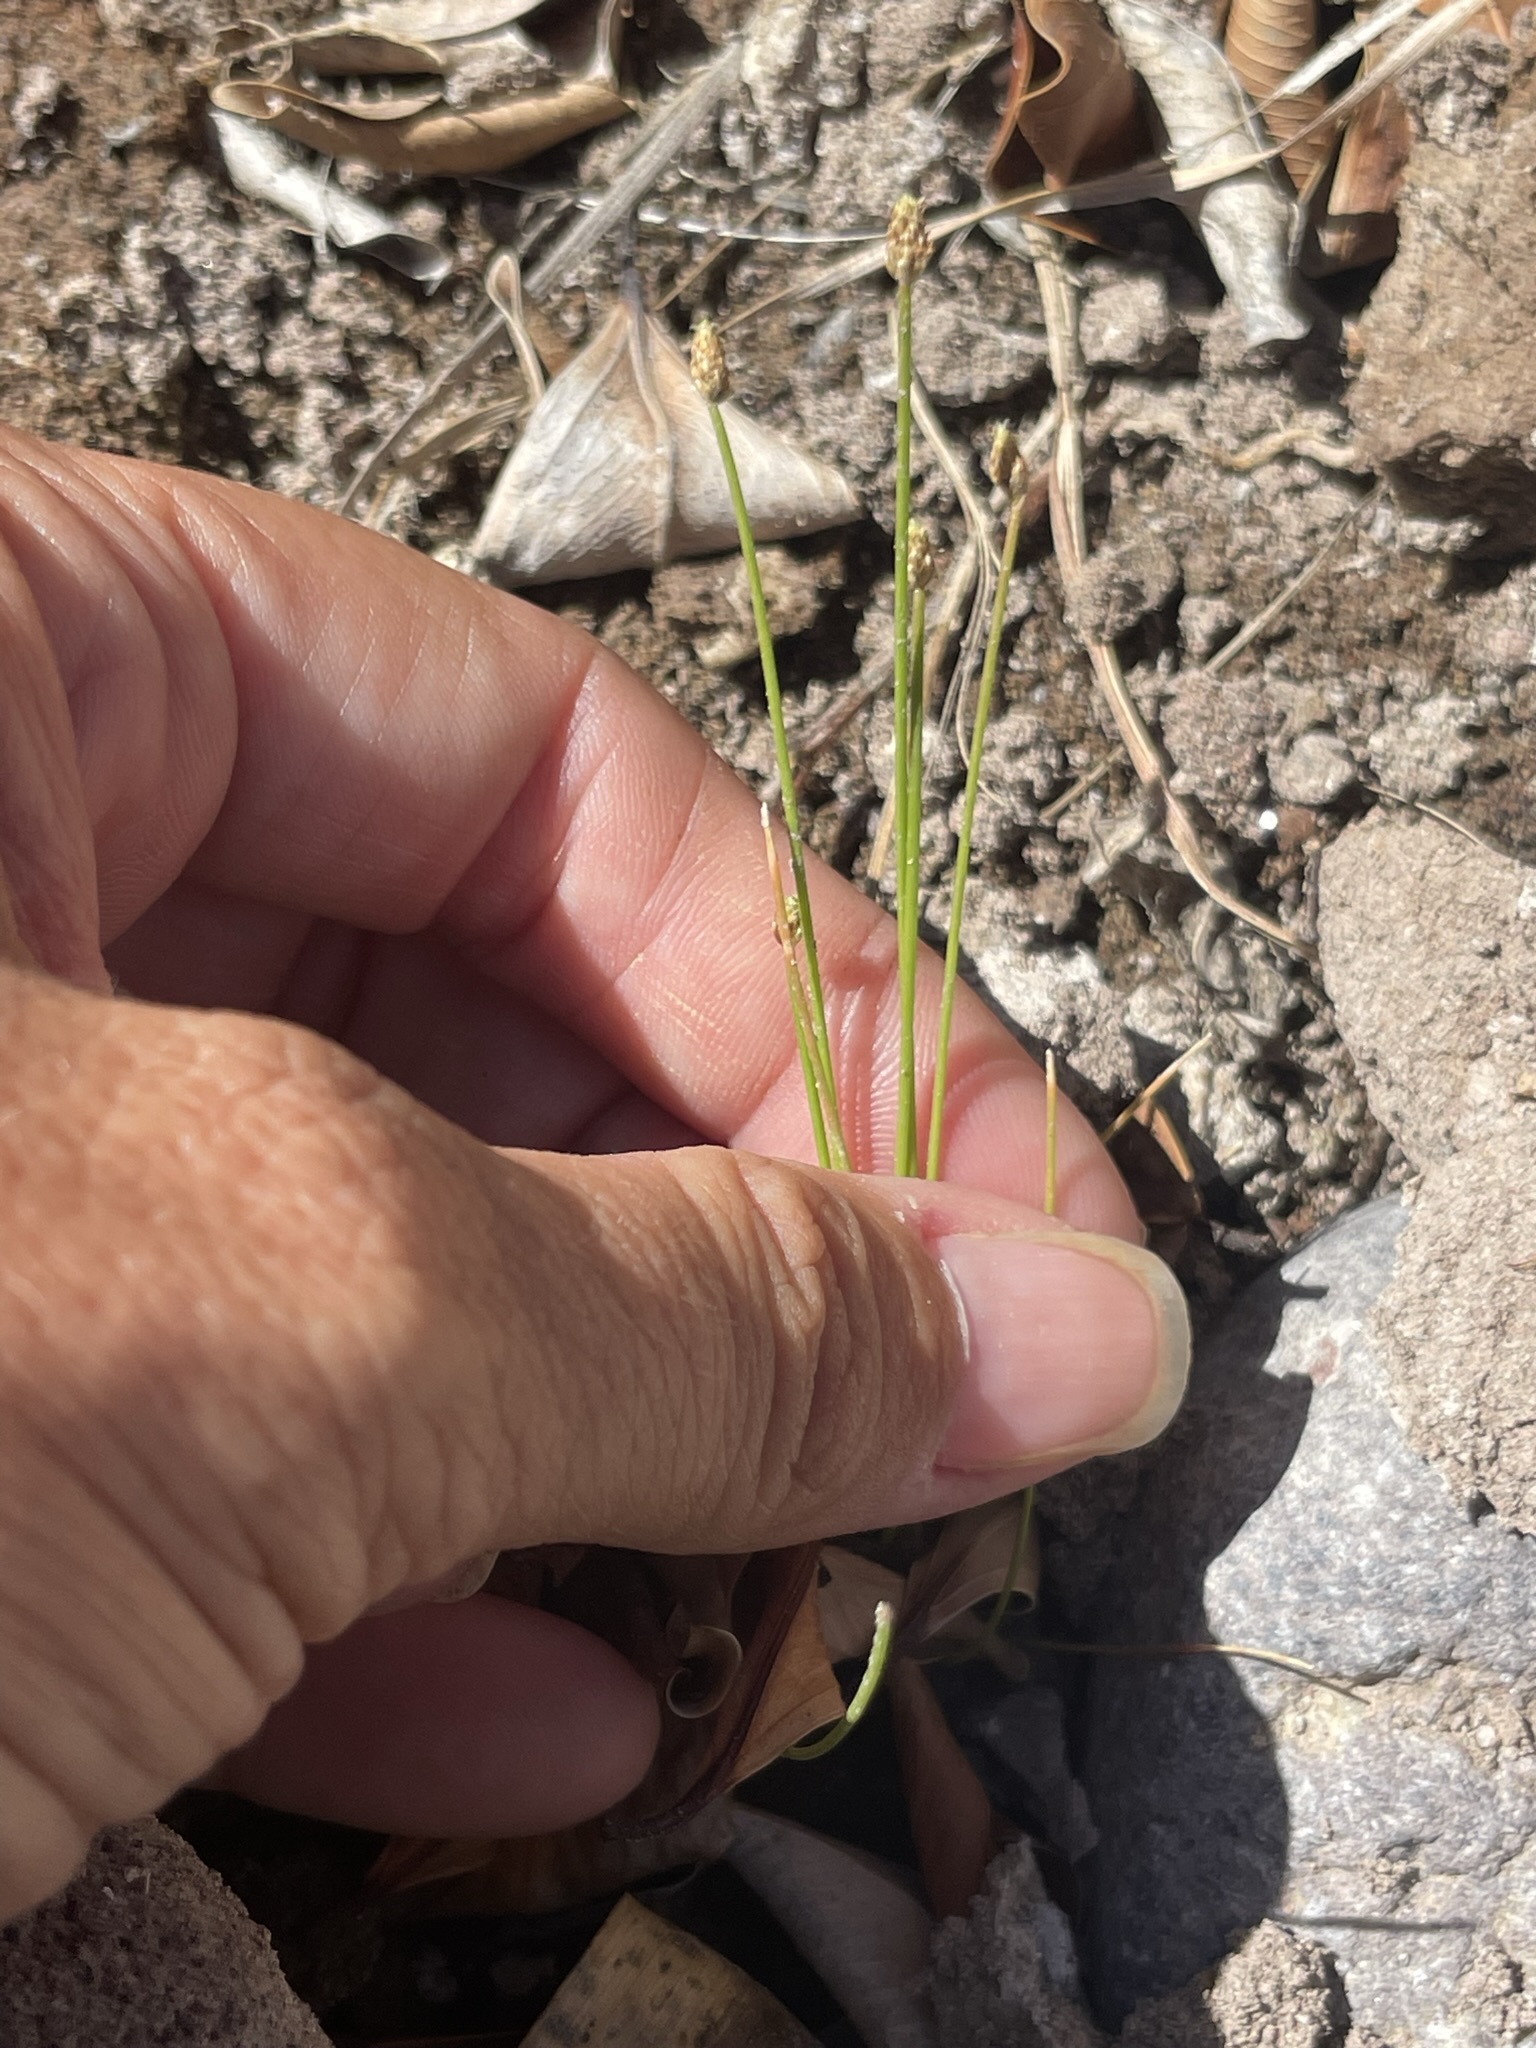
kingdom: Plantae
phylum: Tracheophyta
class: Liliopsida
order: Poales
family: Cyperaceae
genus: Eleocharis
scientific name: Eleocharis geniculata
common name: Canada spikesedge
